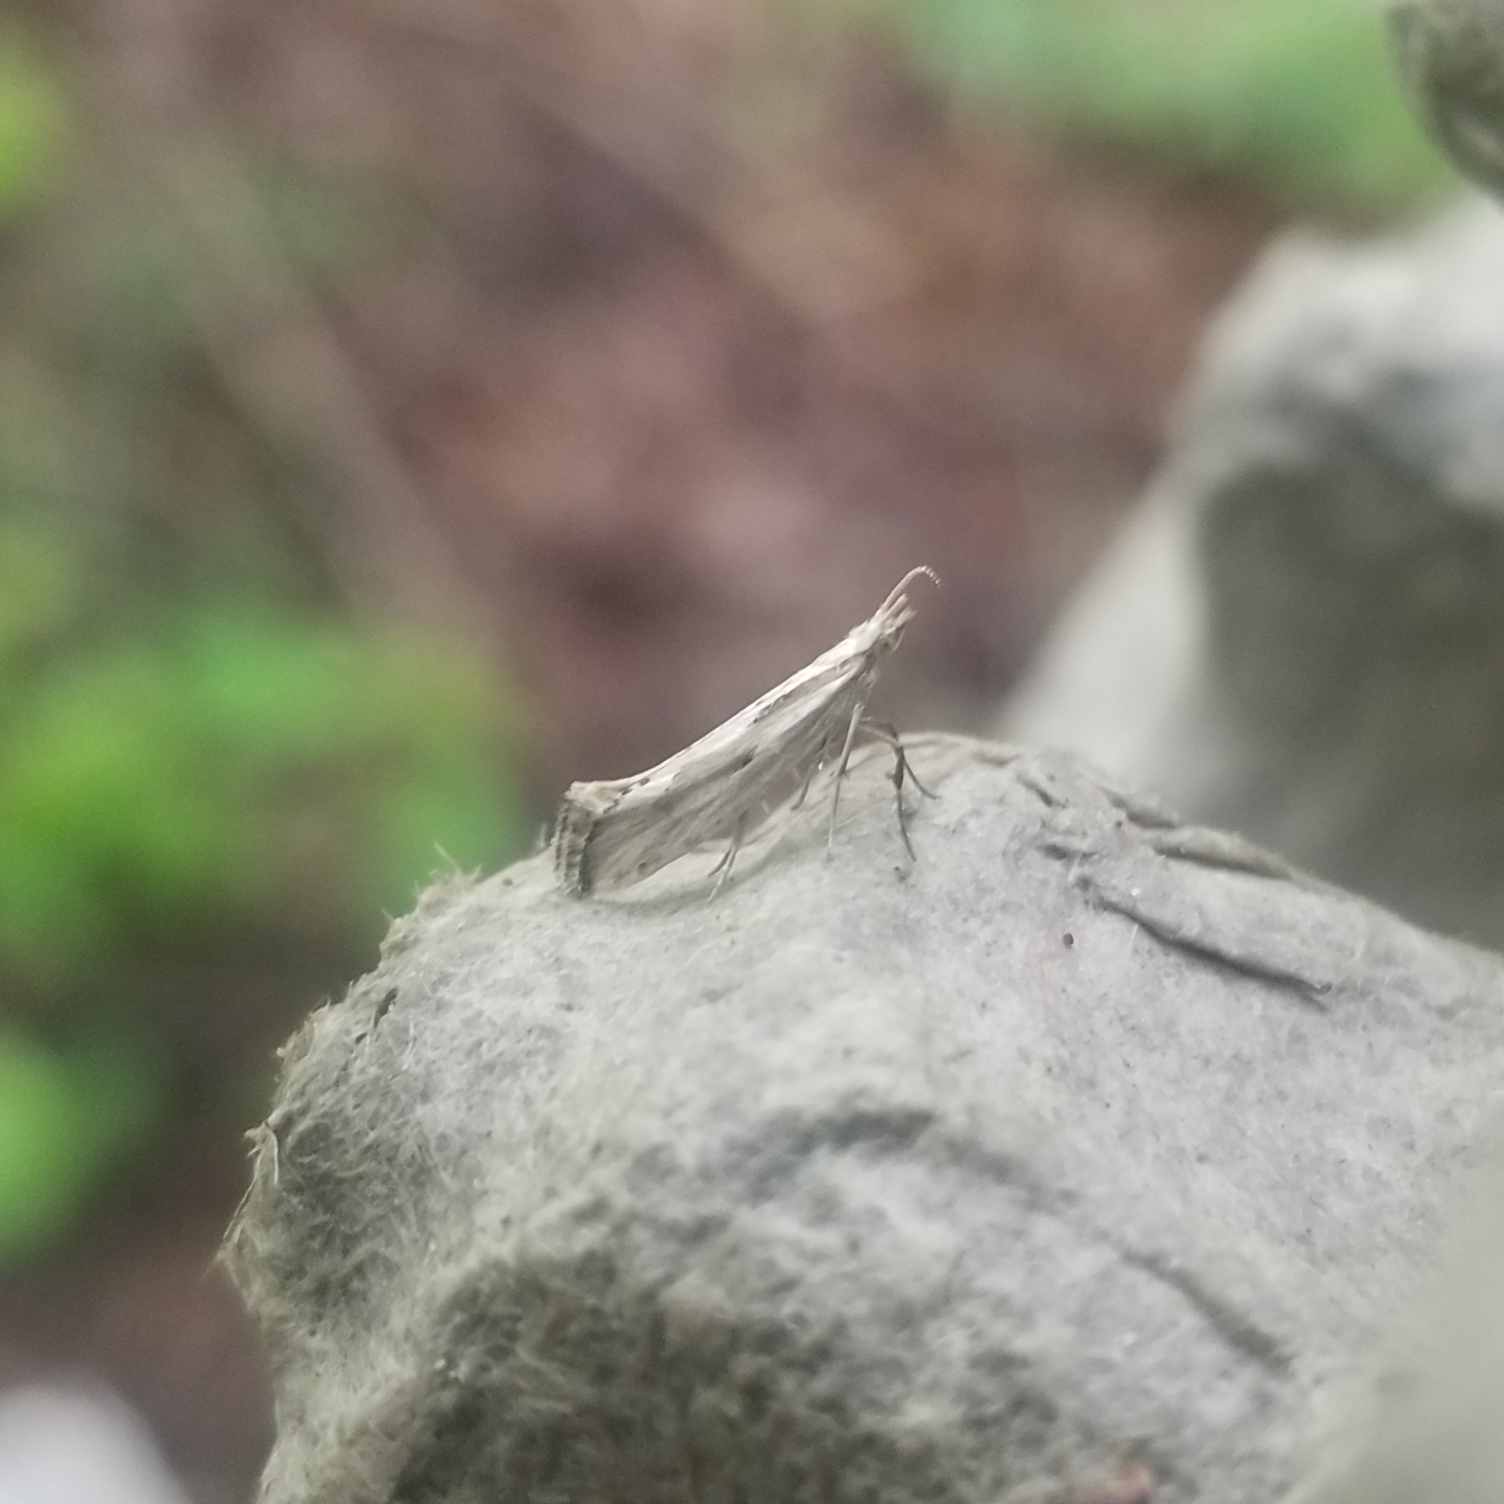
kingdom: Animalia
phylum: Arthropoda
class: Insecta
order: Lepidoptera
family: Plutellidae
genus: Plutella
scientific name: Plutella porrectella
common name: Dame's rocket moth
